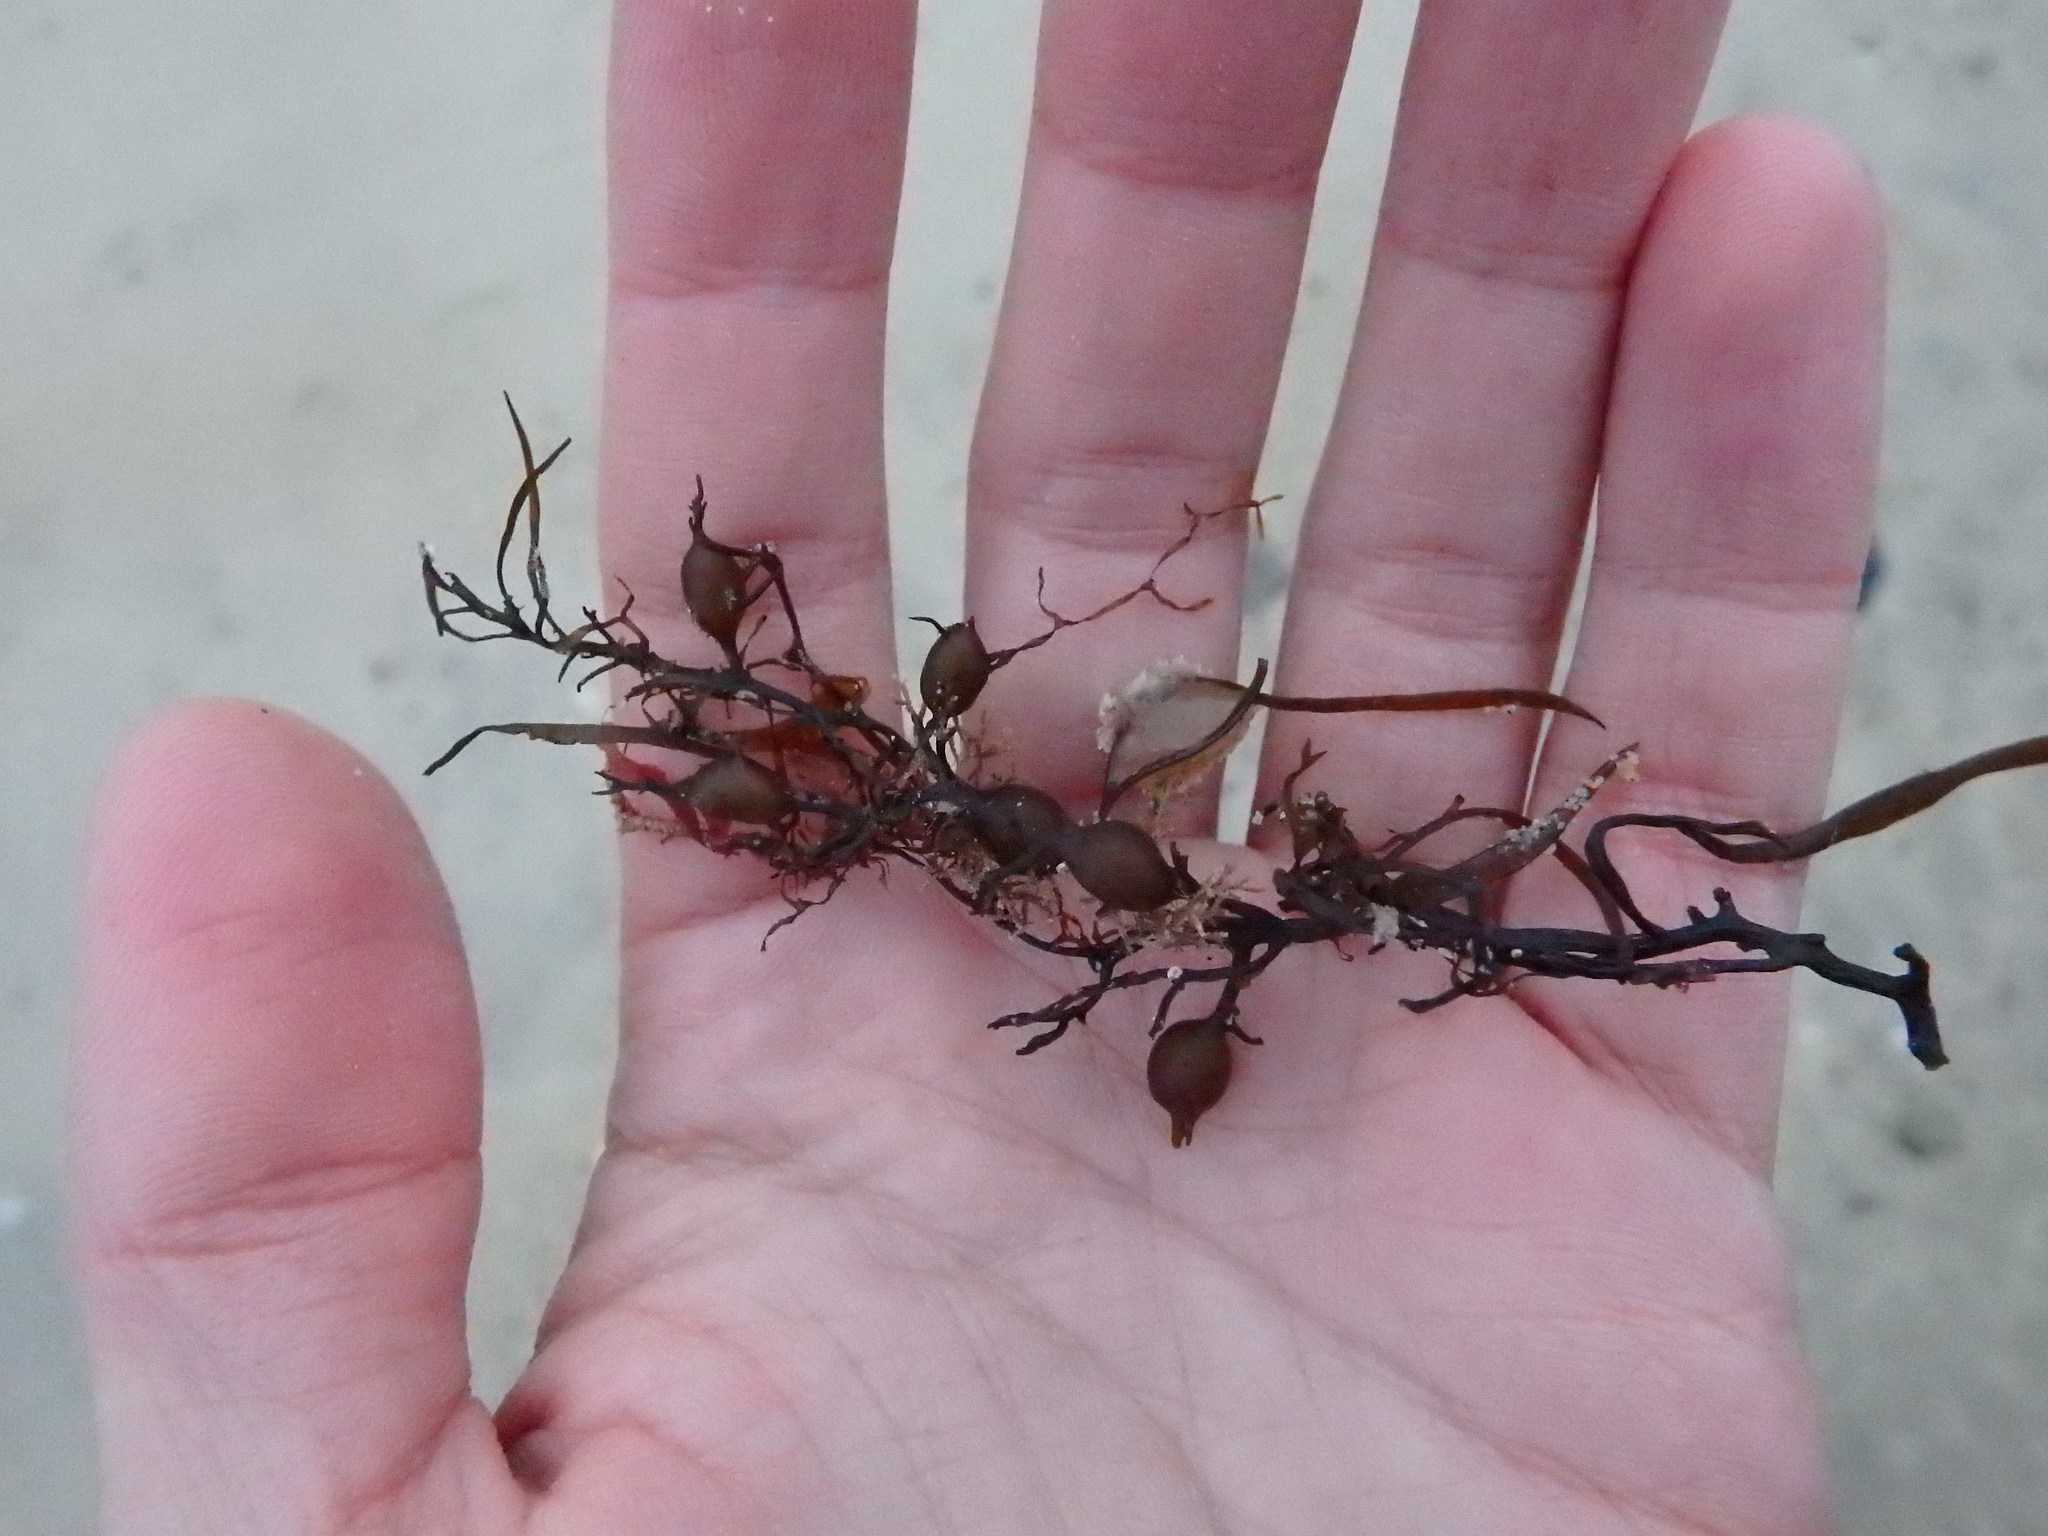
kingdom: Chromista
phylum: Ochrophyta
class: Phaeophyceae
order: Fucales
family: Sargassaceae
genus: Cystoseira
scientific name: Cystoseira Gongolaria baccata
